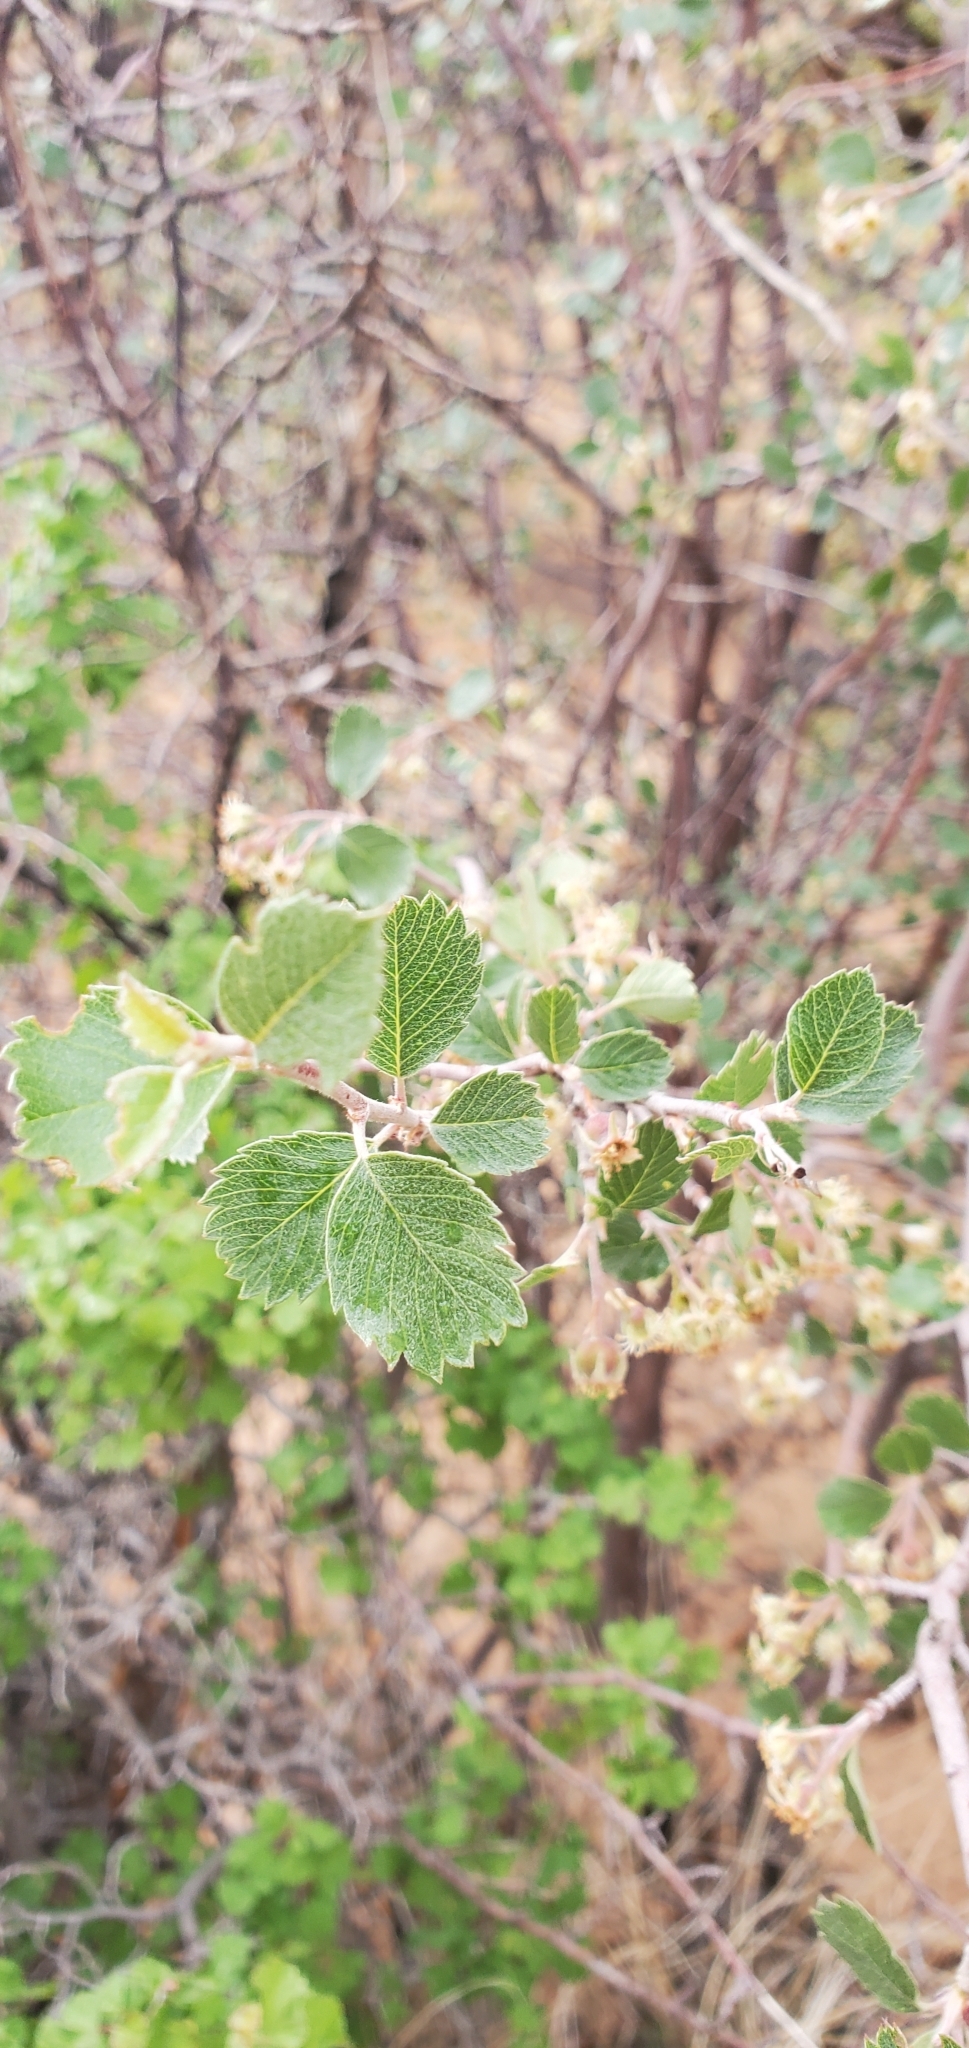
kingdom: Plantae
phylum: Tracheophyta
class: Magnoliopsida
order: Rosales
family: Rosaceae
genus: Amelanchier
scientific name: Amelanchier utahensis
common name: Utah serviceberry
